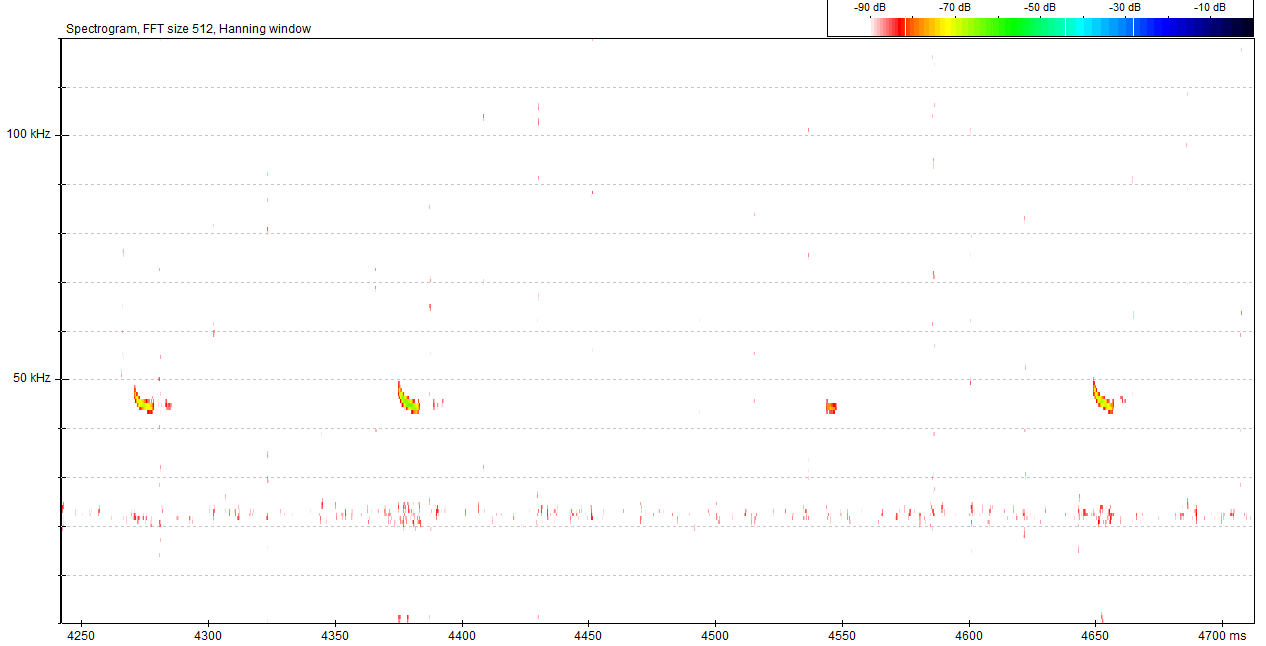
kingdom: Animalia
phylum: Chordata
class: Mammalia
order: Chiroptera
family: Vespertilionidae
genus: Pipistrellus
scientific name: Pipistrellus pipistrellus
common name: Common pipistrelle
